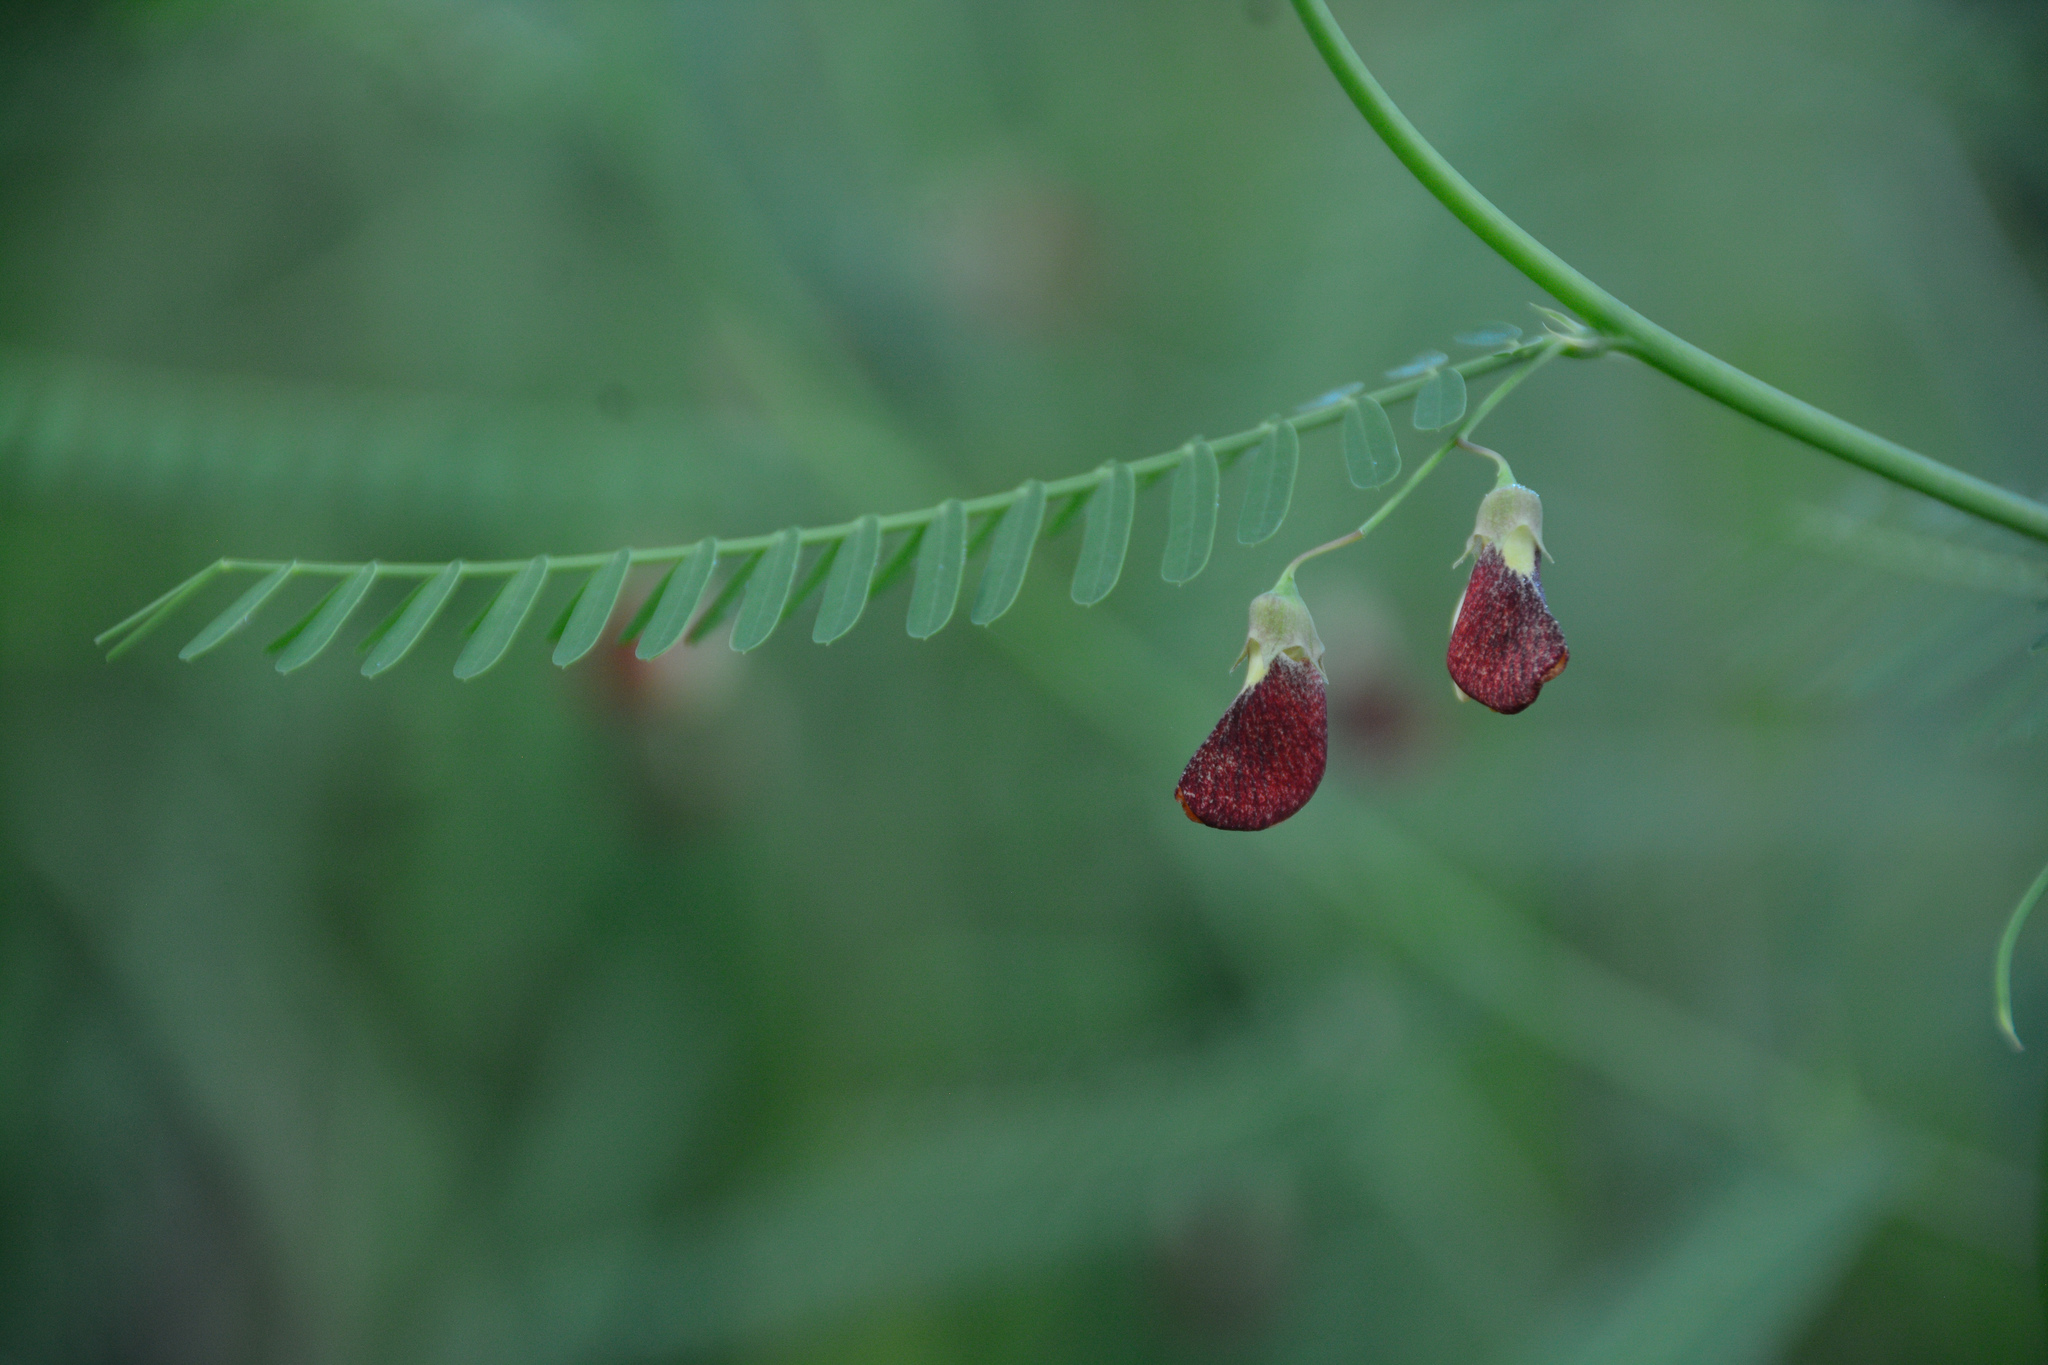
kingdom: Plantae
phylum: Tracheophyta
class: Magnoliopsida
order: Fabales
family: Fabaceae
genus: Sesbania
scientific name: Sesbania herbacea
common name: Bigpod sesbania
